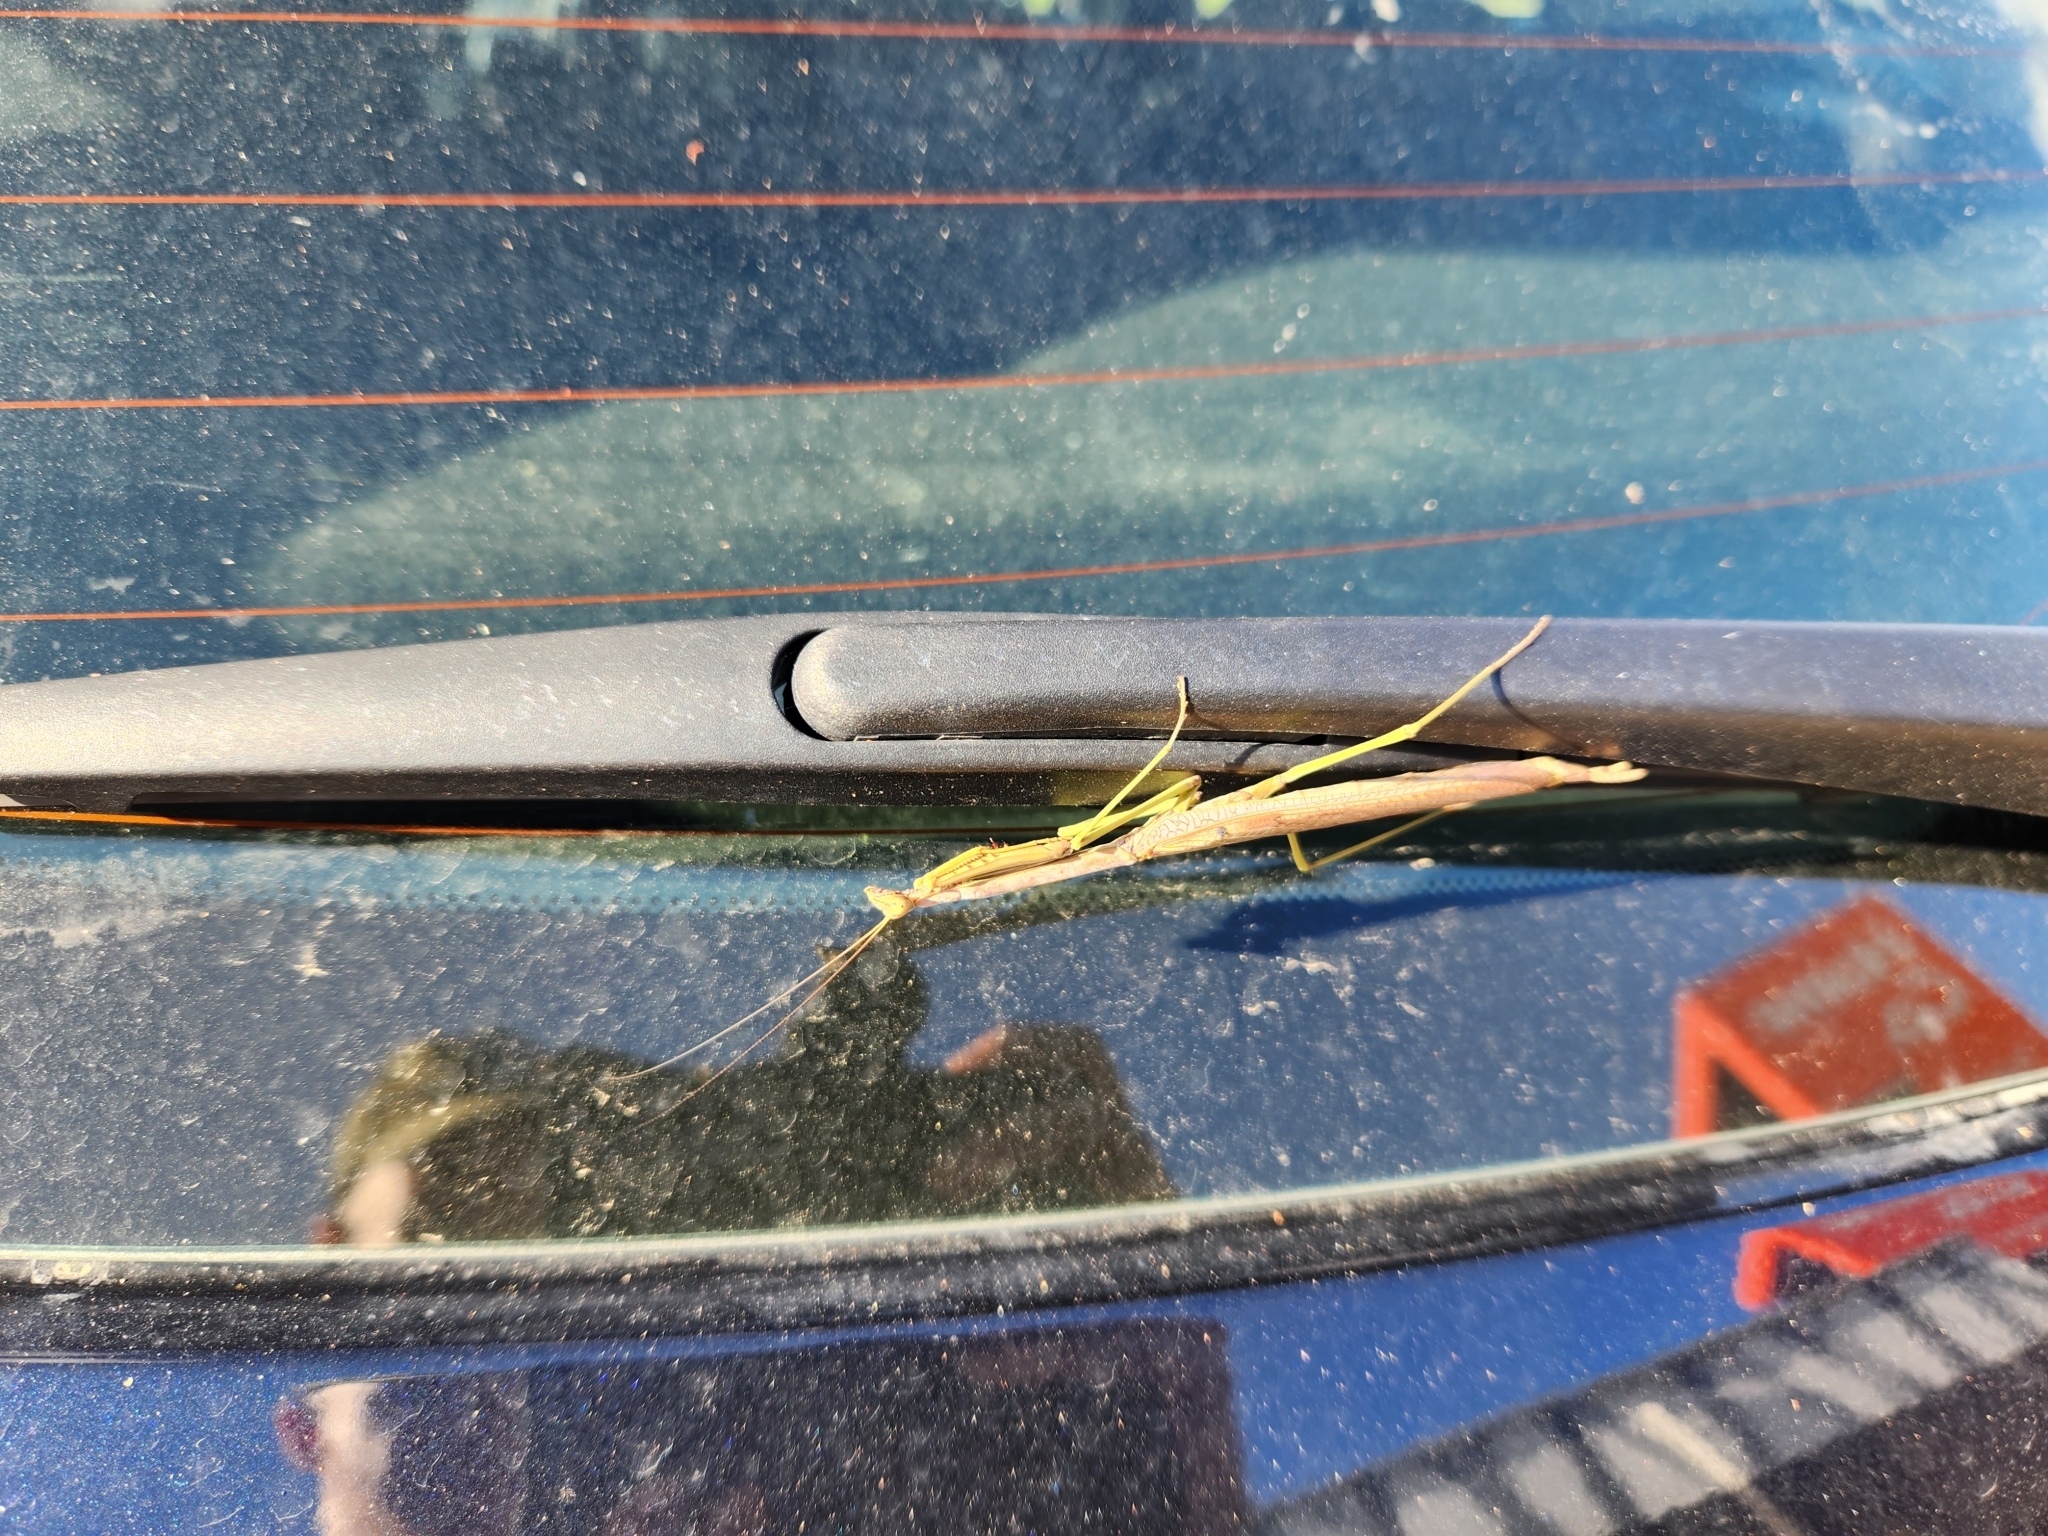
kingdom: Animalia
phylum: Arthropoda
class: Insecta
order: Mantodea
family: Mantidae
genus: Archimantis
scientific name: Archimantis latistyla
